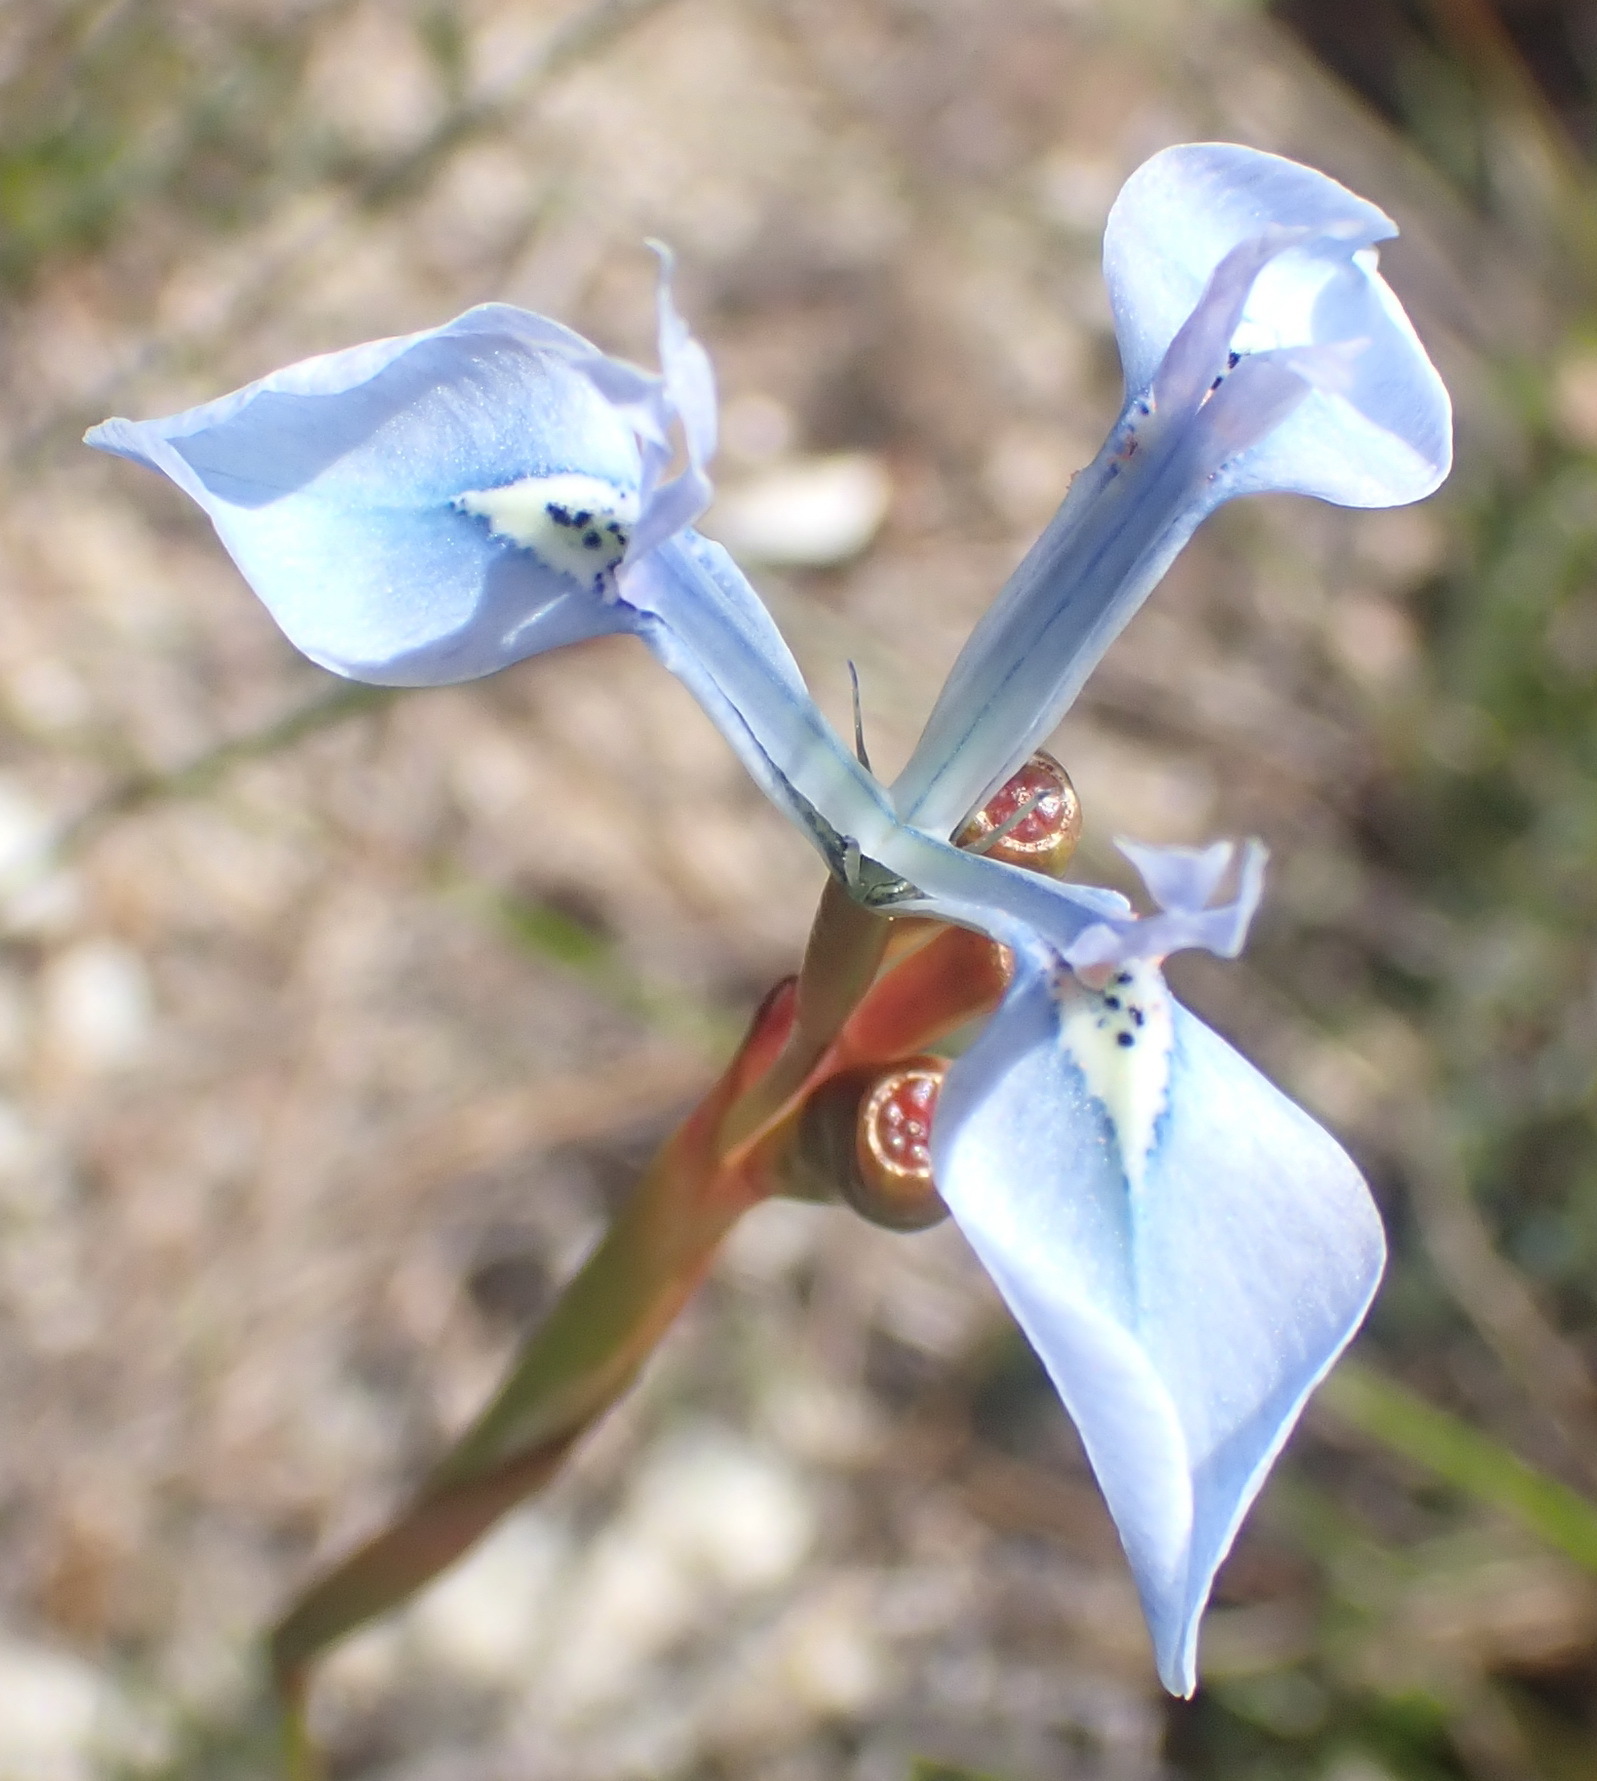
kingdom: Plantae
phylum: Tracheophyta
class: Liliopsida
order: Asparagales
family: Iridaceae
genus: Moraea
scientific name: Moraea tripetala
